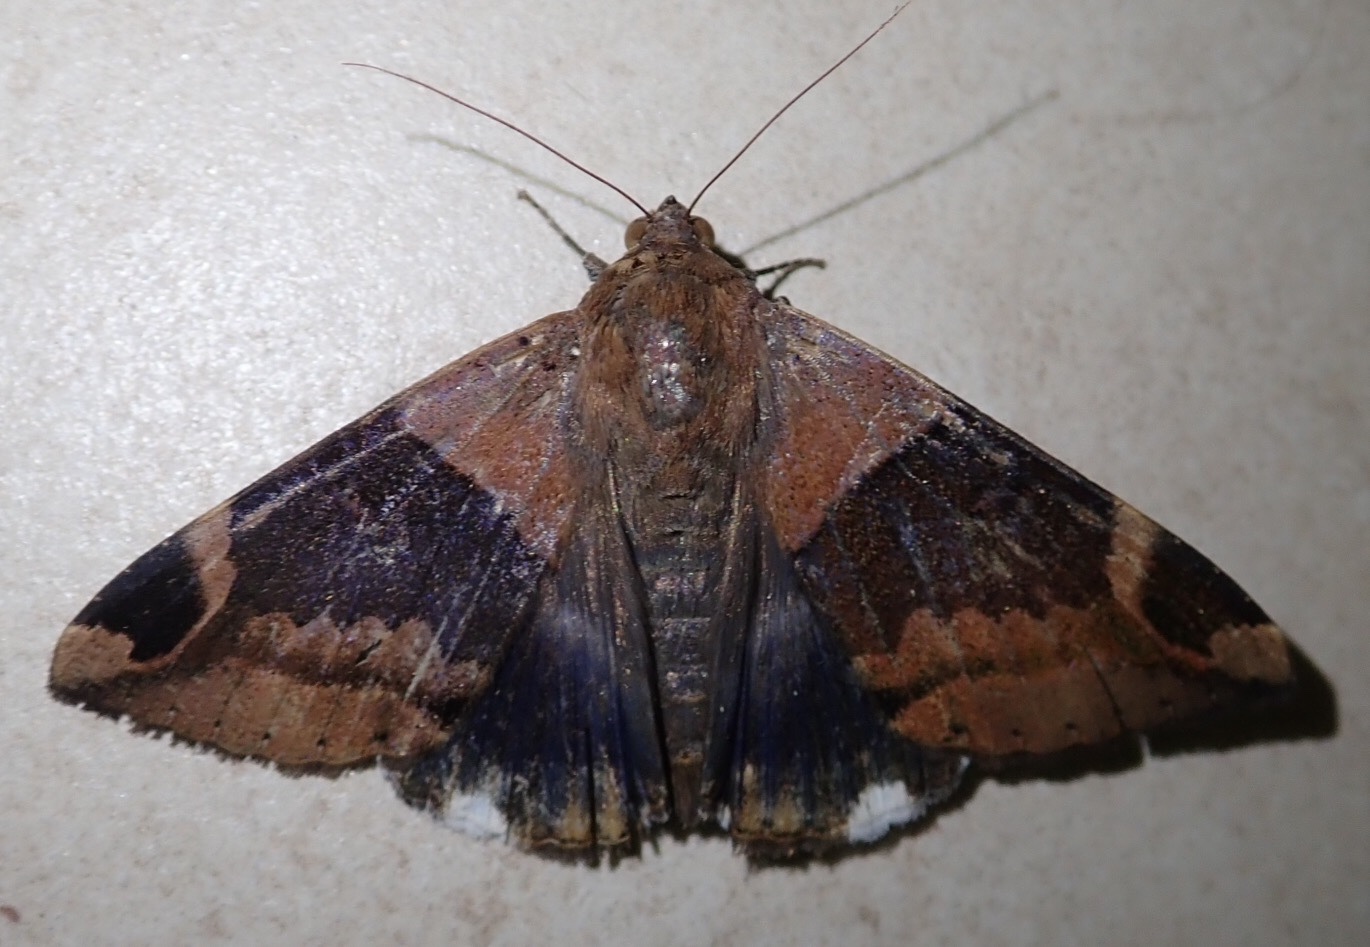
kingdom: Animalia
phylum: Arthropoda
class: Insecta
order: Lepidoptera
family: Erebidae
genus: Achaea
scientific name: Achaea lienardi
